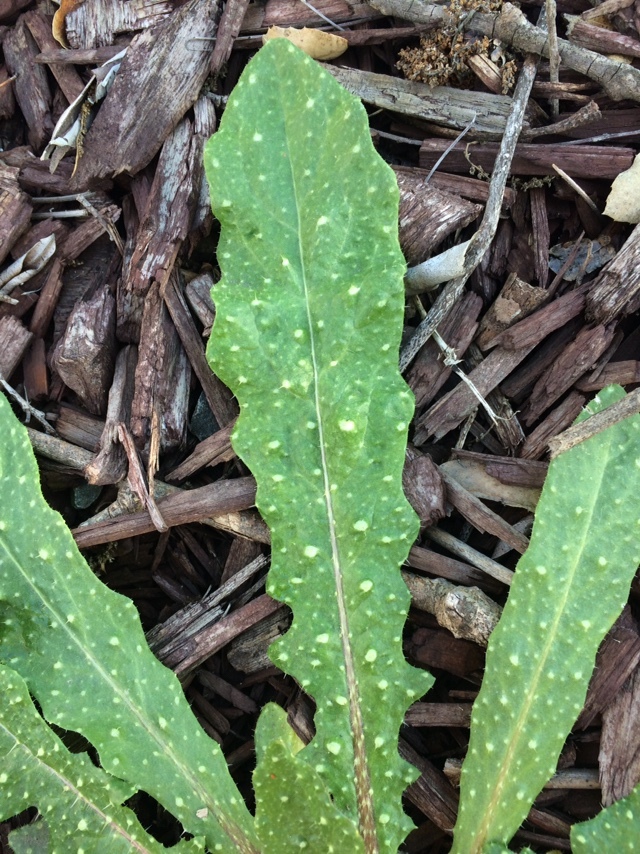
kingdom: Plantae
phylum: Tracheophyta
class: Magnoliopsida
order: Asterales
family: Asteraceae
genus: Helminthotheca
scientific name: Helminthotheca echioides
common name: Ox-tongue
